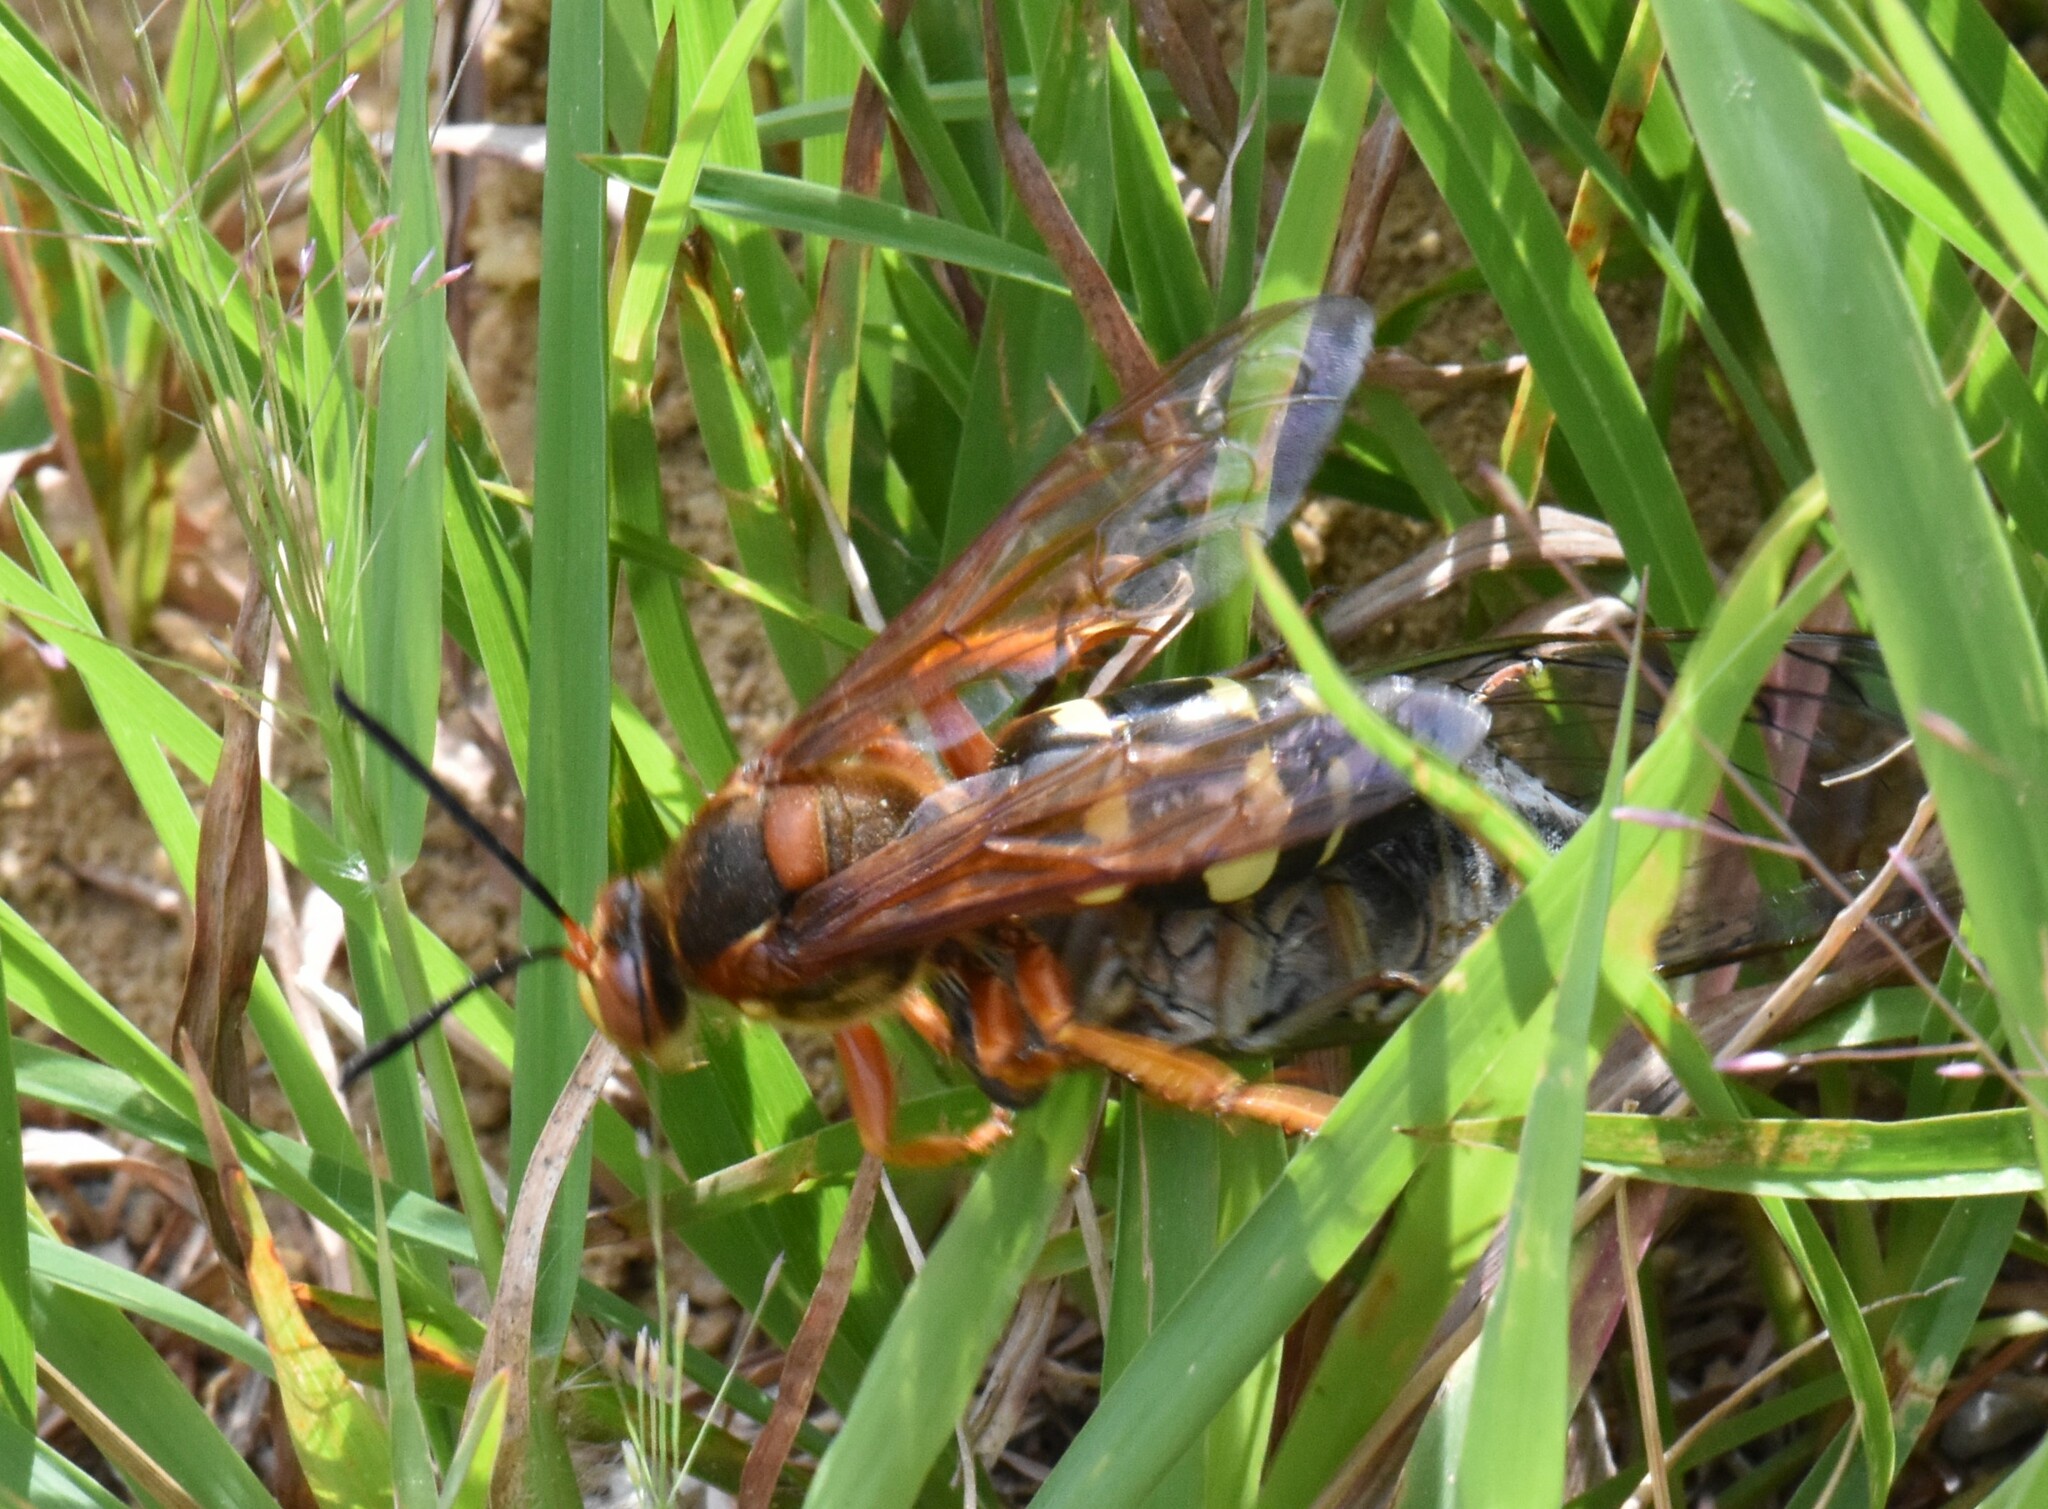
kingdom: Animalia
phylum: Arthropoda
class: Insecta
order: Hymenoptera
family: Crabronidae
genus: Sphecius
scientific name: Sphecius speciosus
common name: Cicada killer
